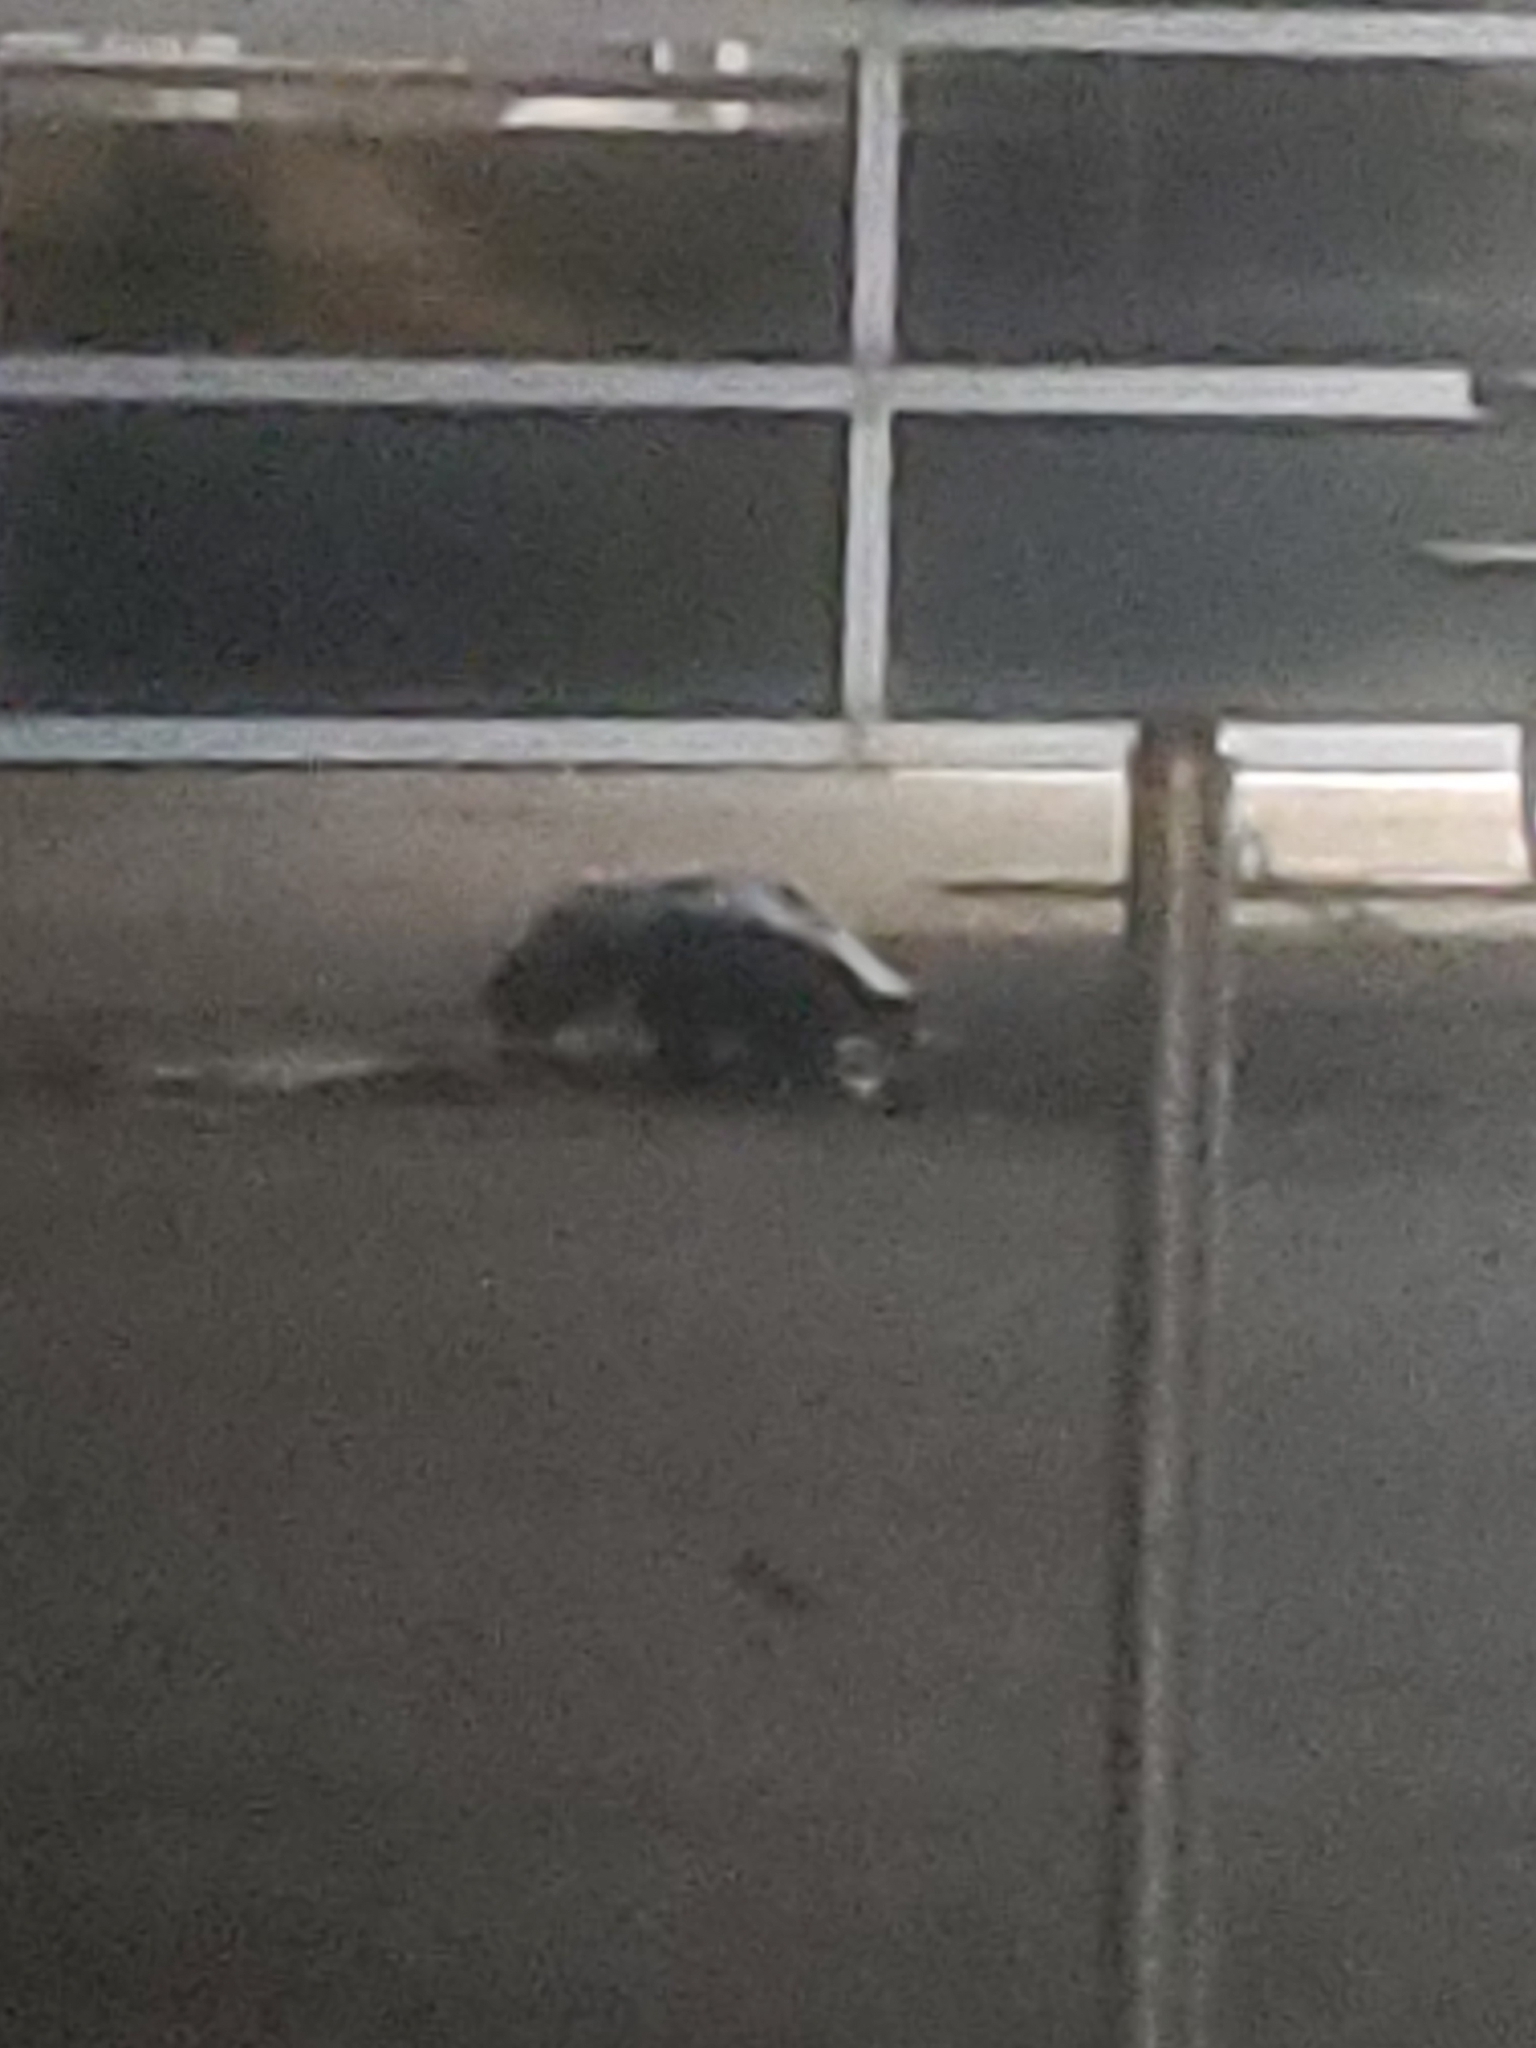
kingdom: Animalia
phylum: Chordata
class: Mammalia
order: Carnivora
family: Mephitidae
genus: Mephitis
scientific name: Mephitis mephitis
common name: Striped skunk
